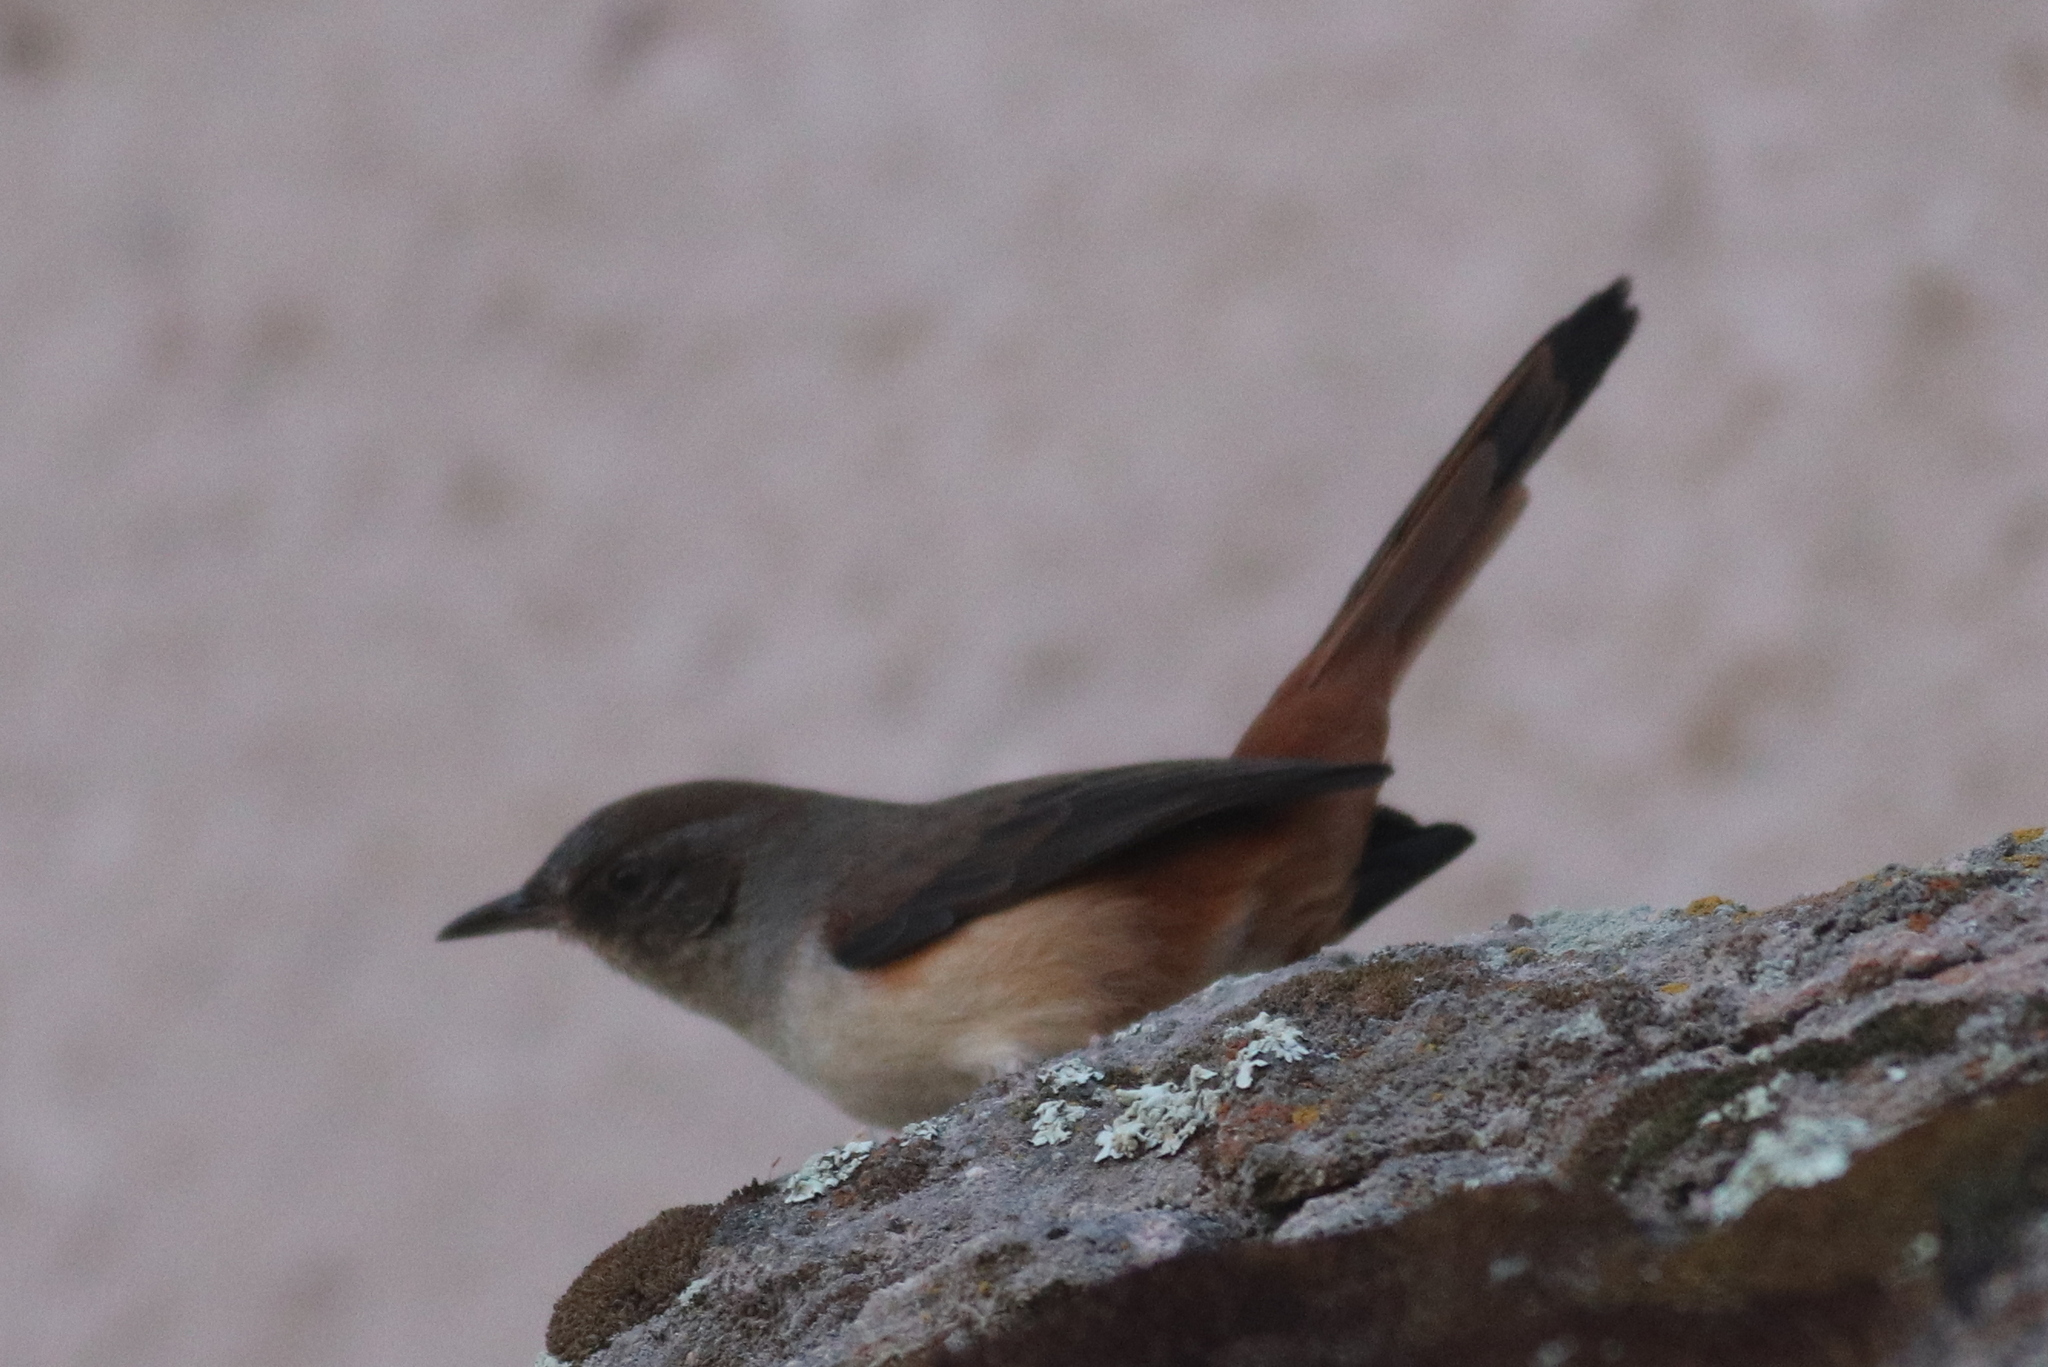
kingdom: Animalia
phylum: Chordata
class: Aves
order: Passeriformes
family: Furnariidae
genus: Asthenes
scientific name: Asthenes dorbignyi
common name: Rusty-vented canastero
